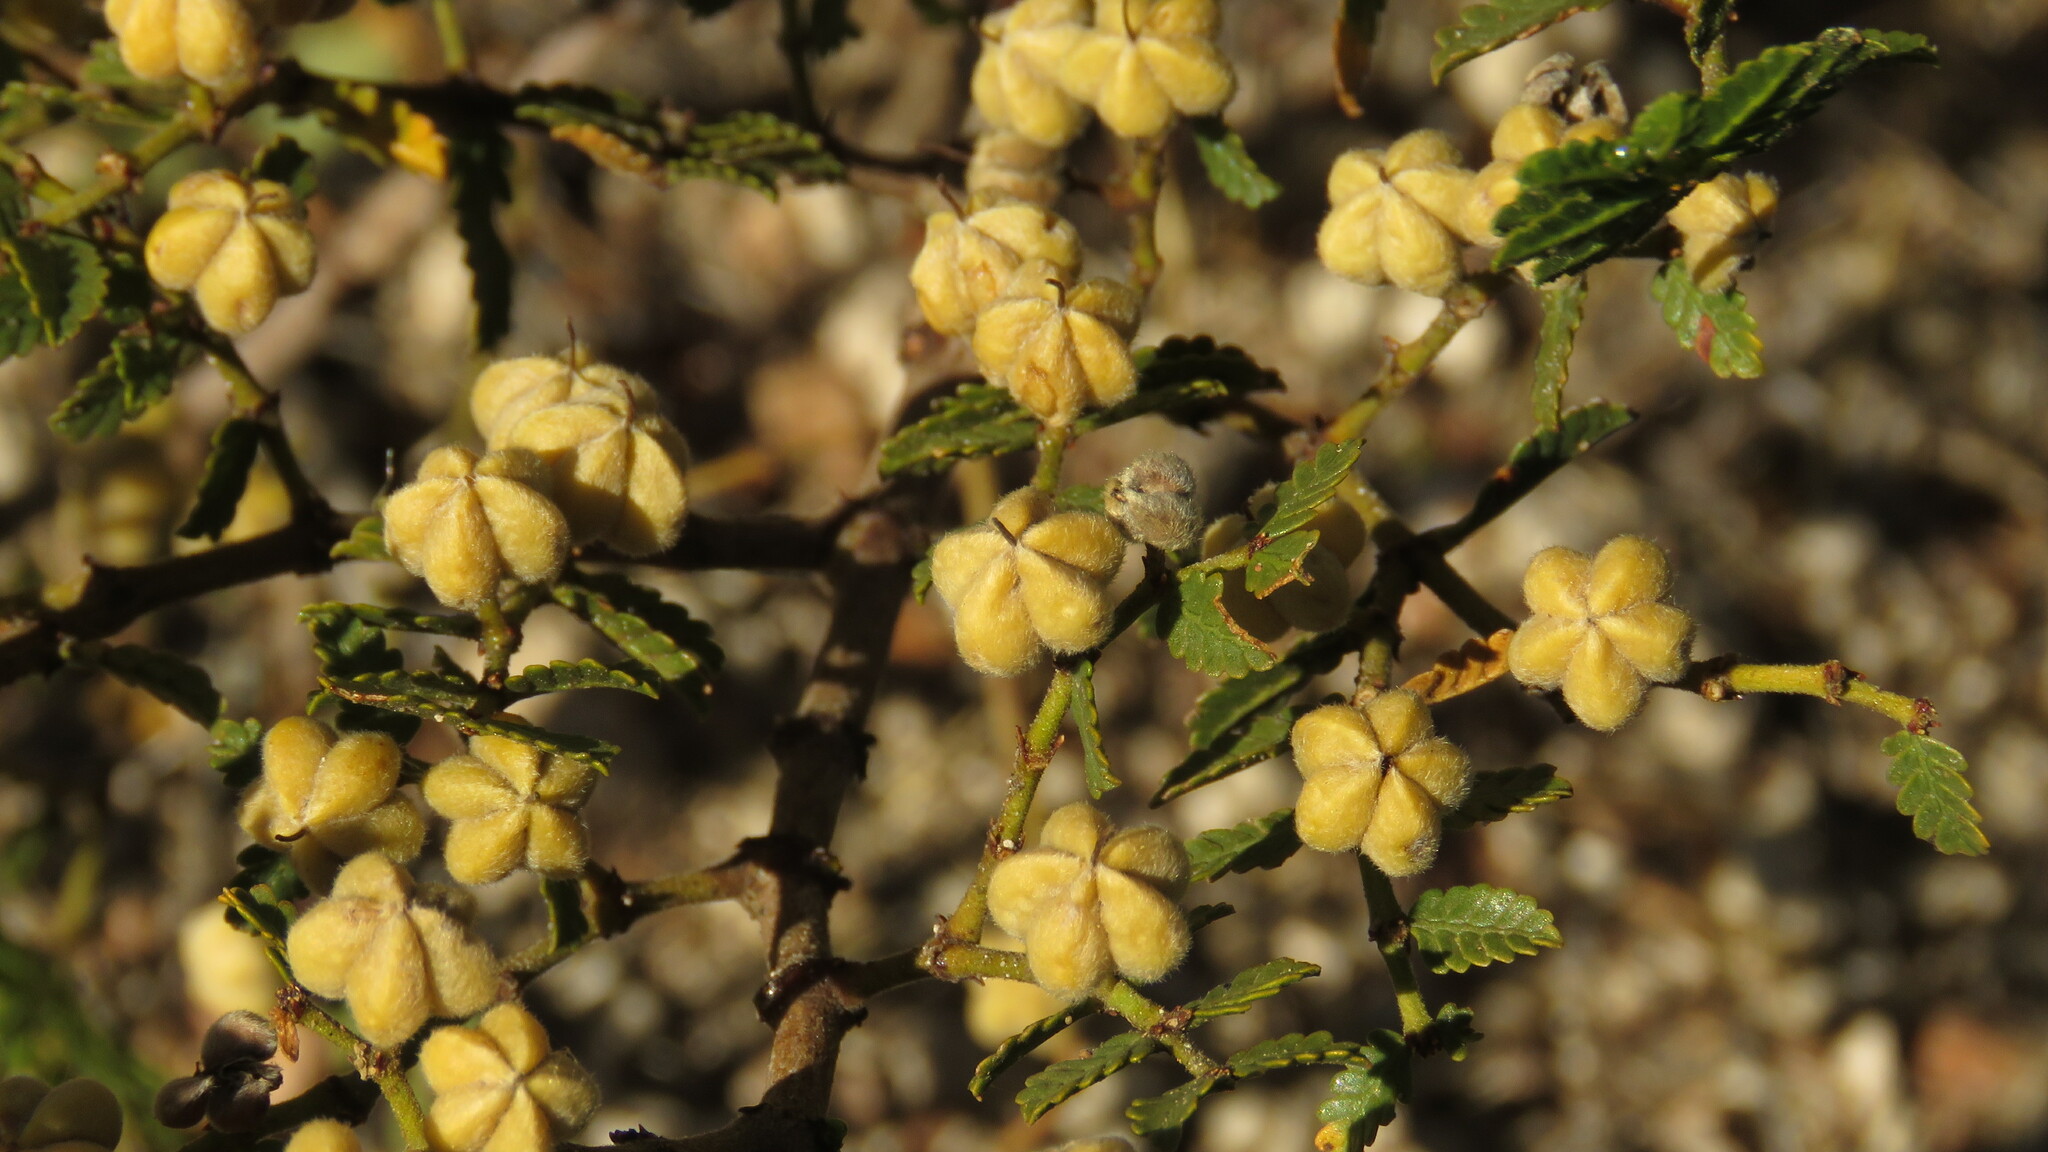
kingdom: Plantae
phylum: Tracheophyta
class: Magnoliopsida
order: Zygophyllales
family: Zygophyllaceae
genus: Larrea
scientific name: Larrea nitida
